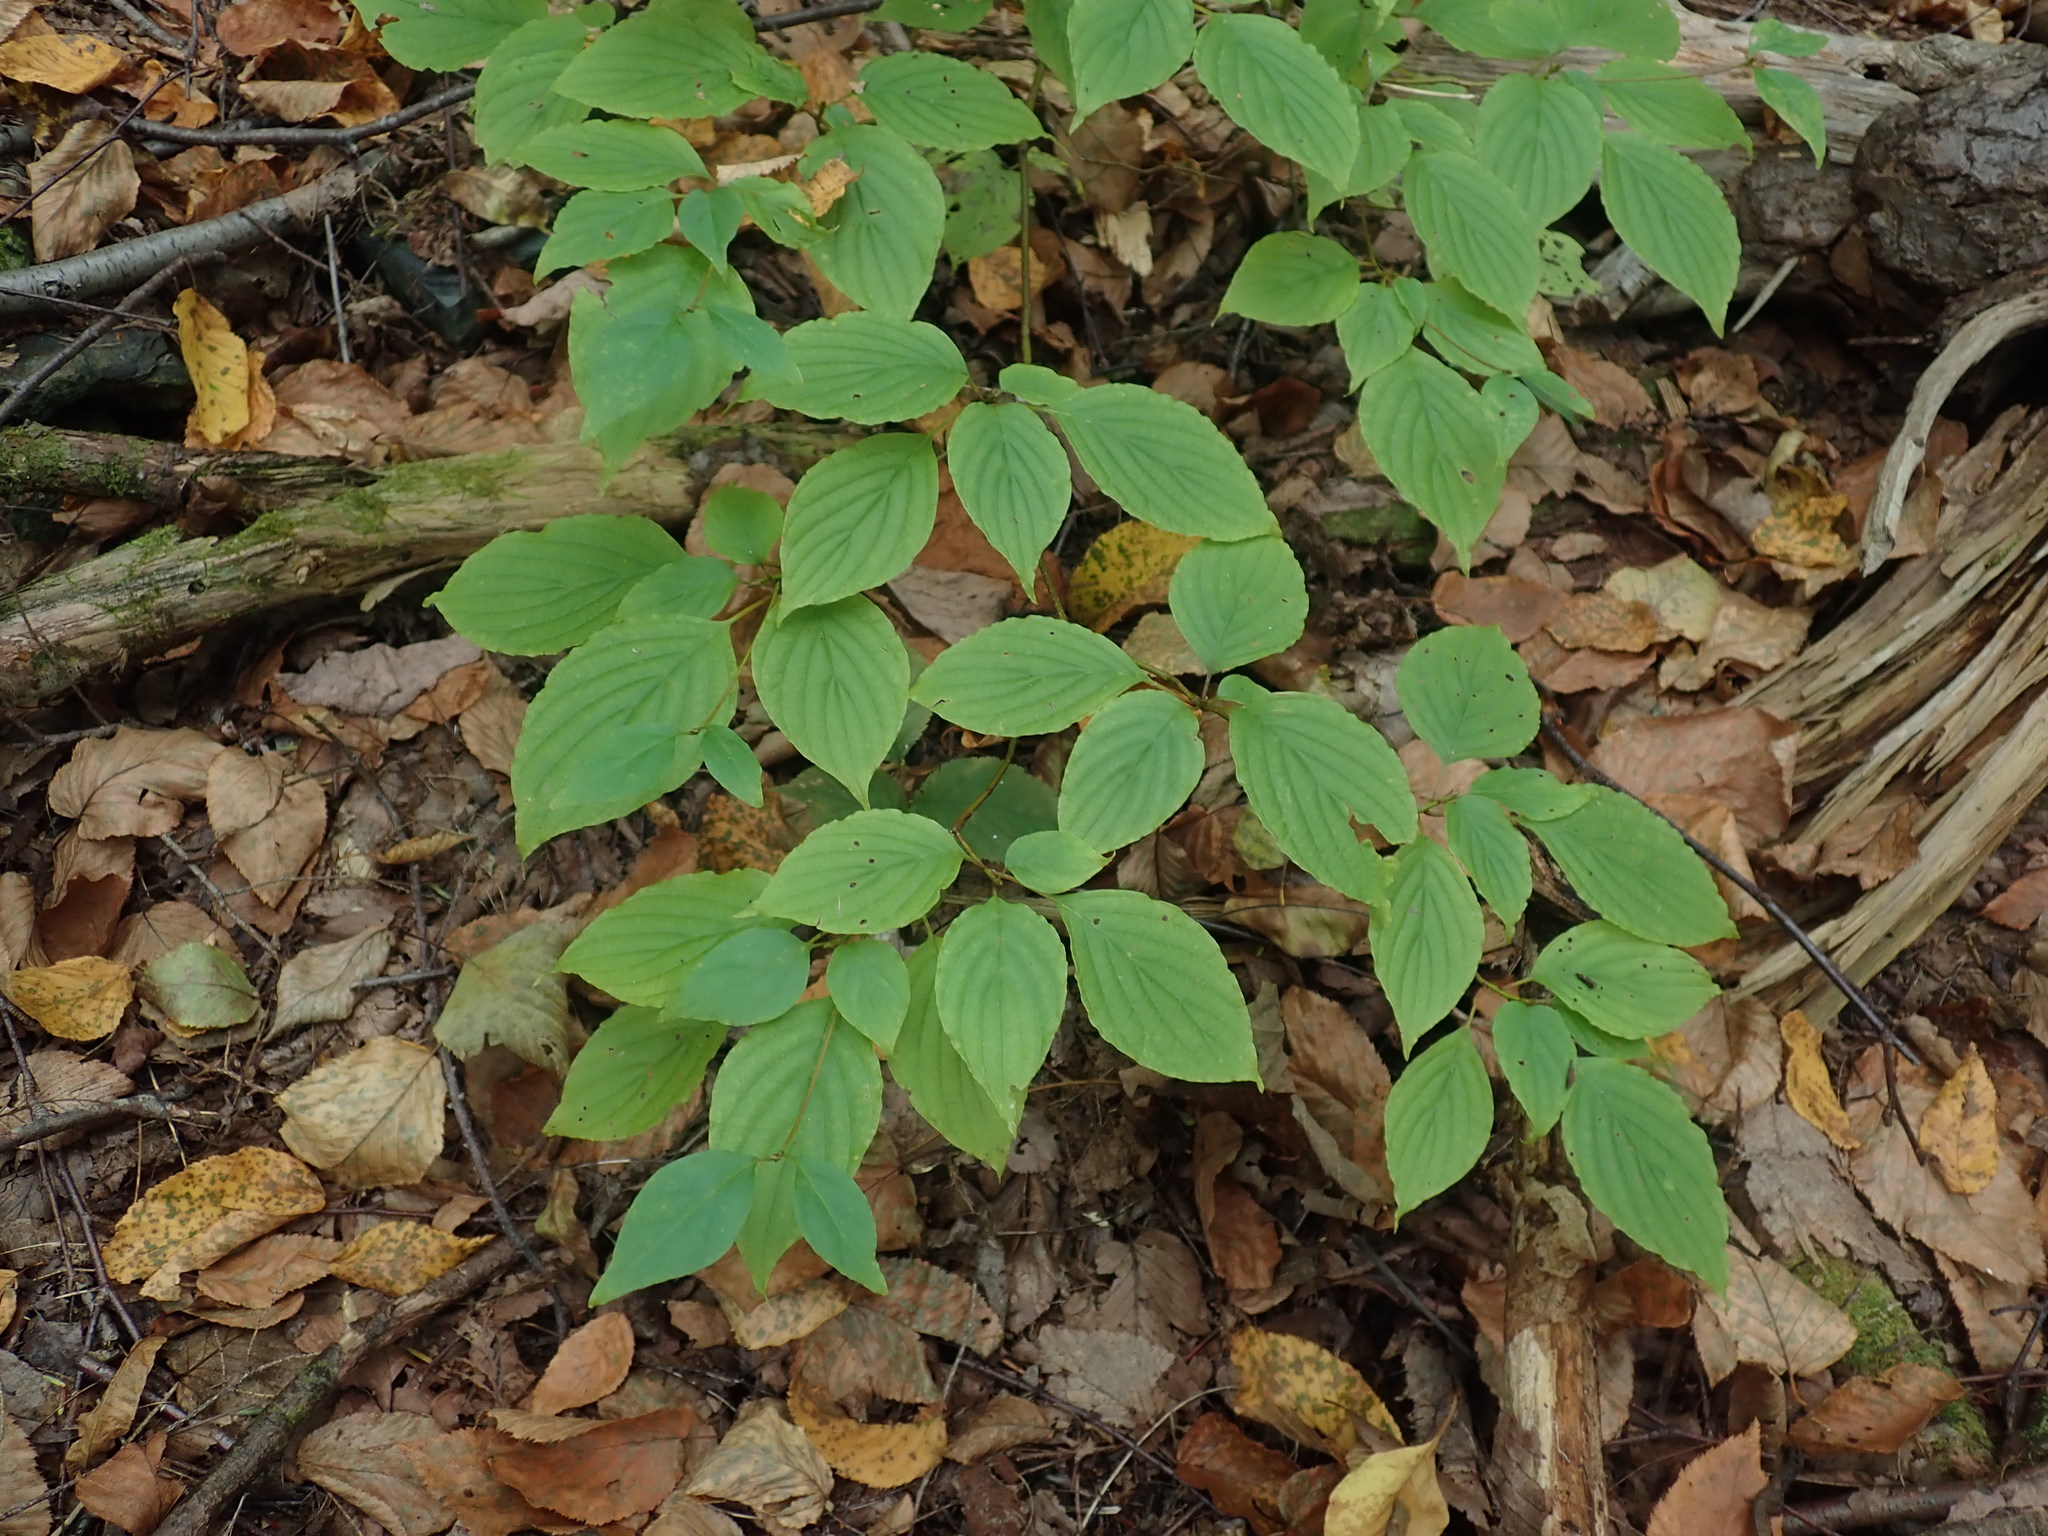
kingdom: Plantae
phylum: Tracheophyta
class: Magnoliopsida
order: Cornales
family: Cornaceae
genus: Cornus
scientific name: Cornus alternifolia
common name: Pagoda dogwood
